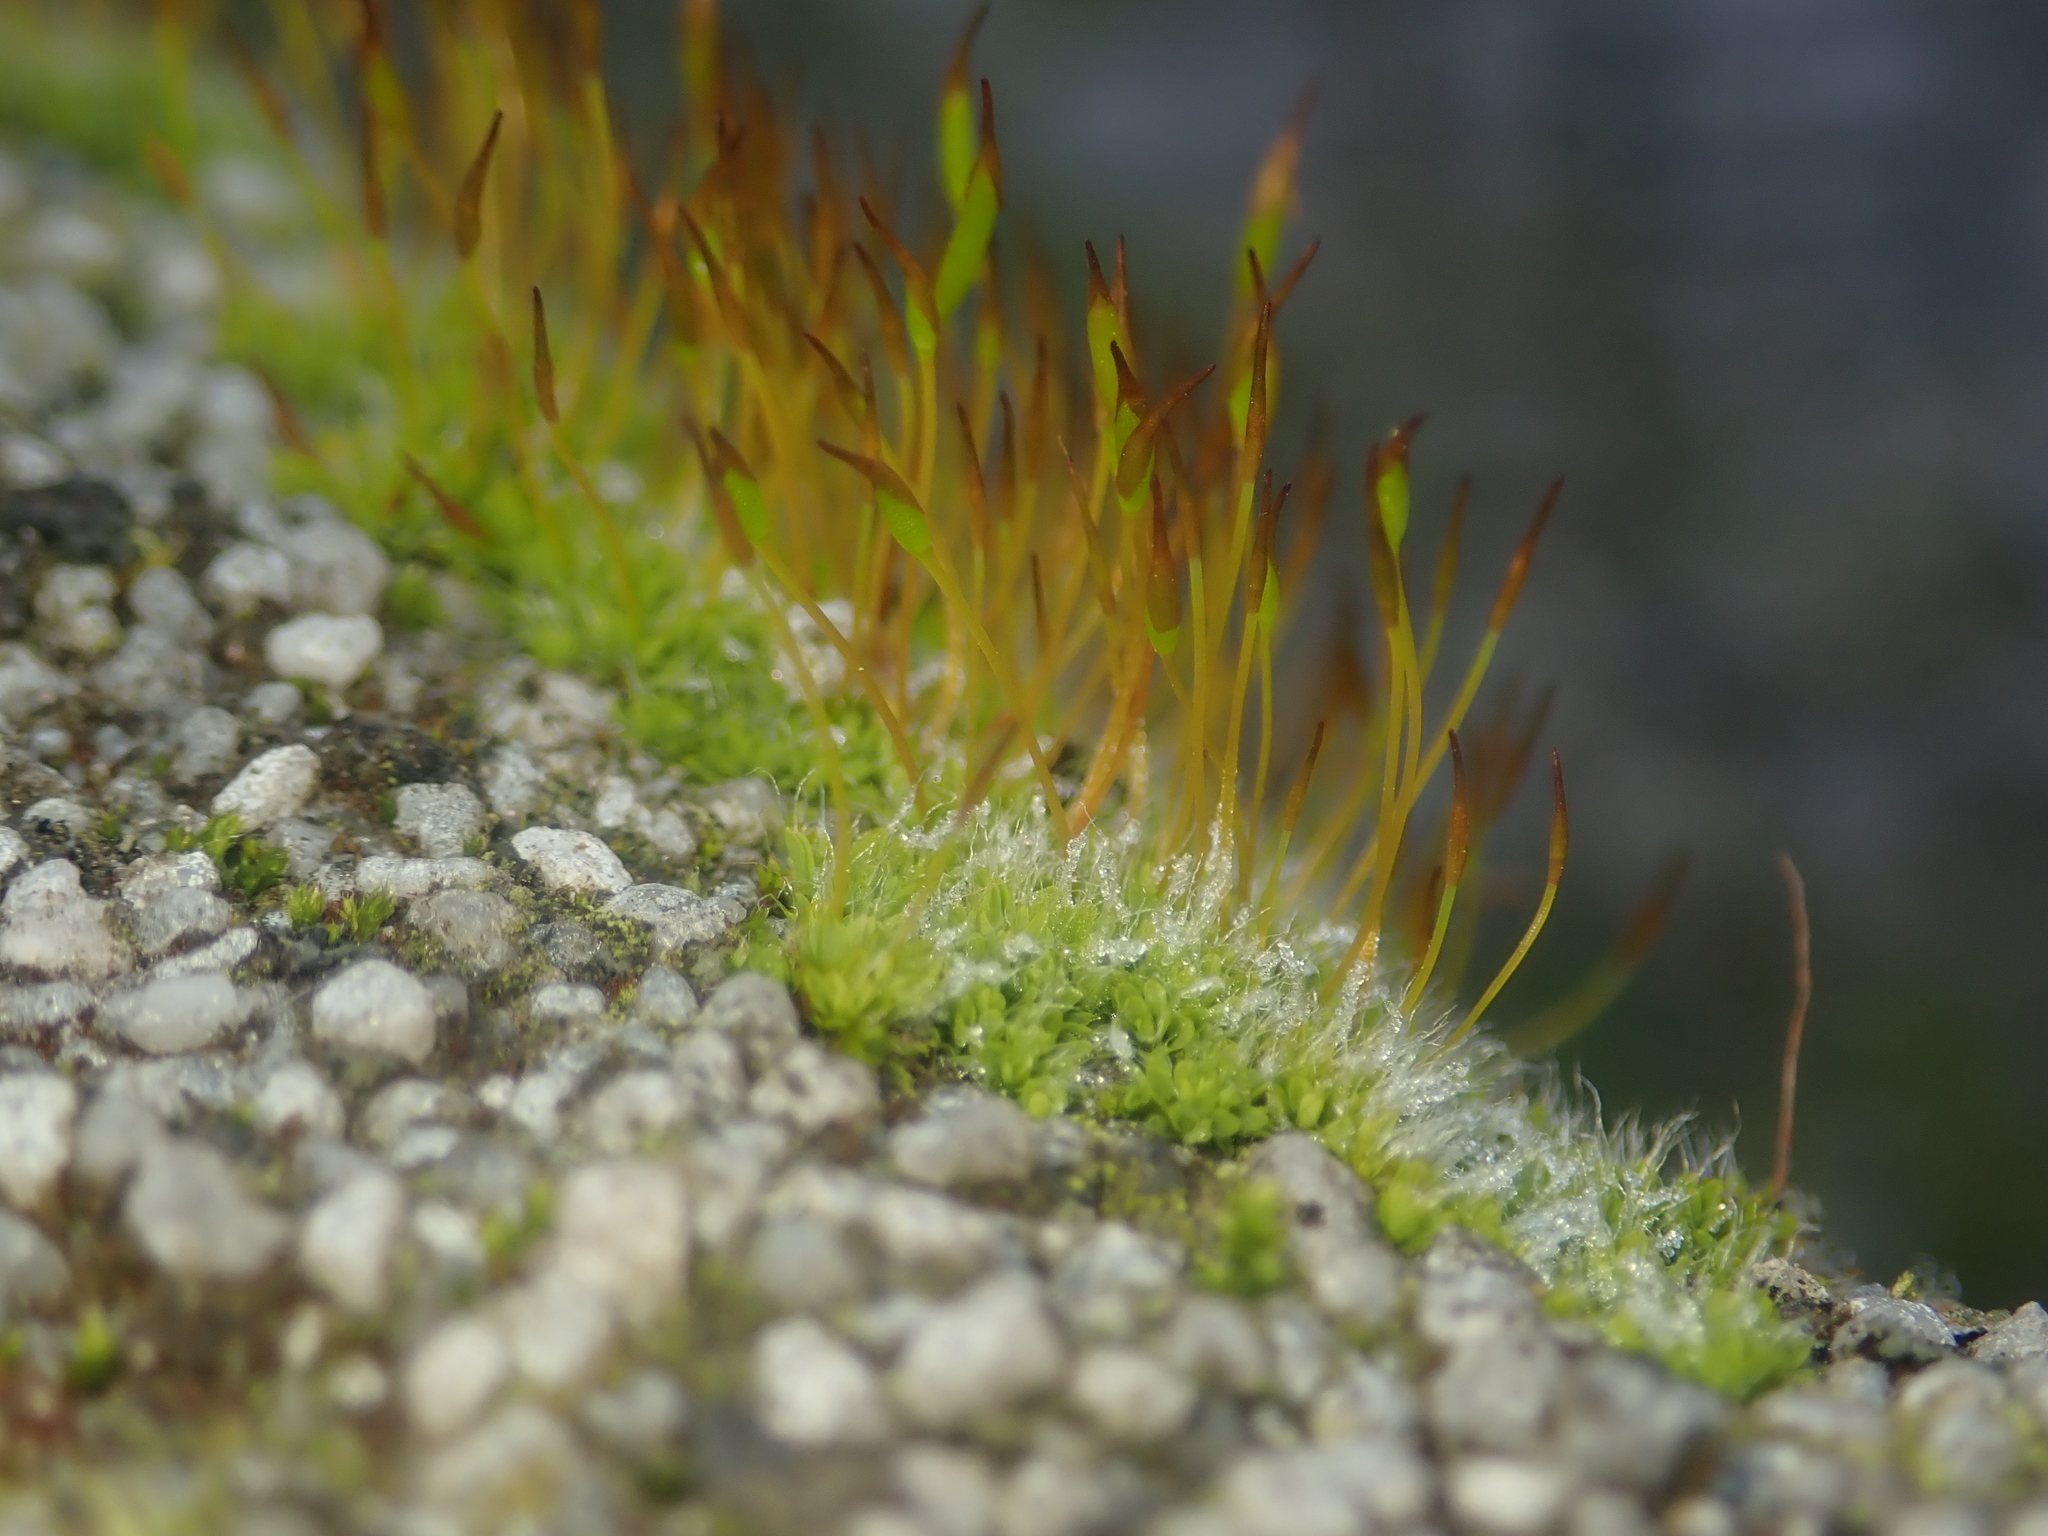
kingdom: Plantae
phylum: Bryophyta
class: Bryopsida
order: Pottiales
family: Pottiaceae
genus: Tortula
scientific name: Tortula muralis
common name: Wall screw-moss
